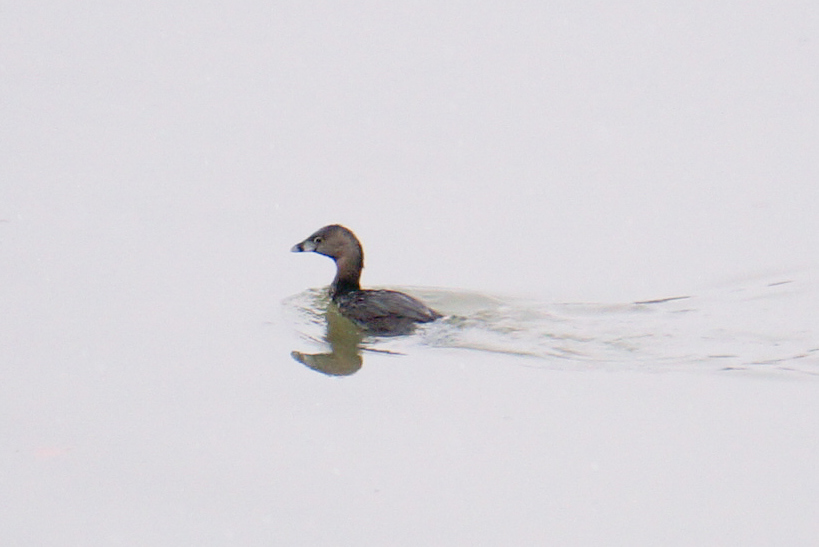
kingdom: Animalia
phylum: Chordata
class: Aves
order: Podicipediformes
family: Podicipedidae
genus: Podilymbus
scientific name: Podilymbus podiceps
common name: Pied-billed grebe
